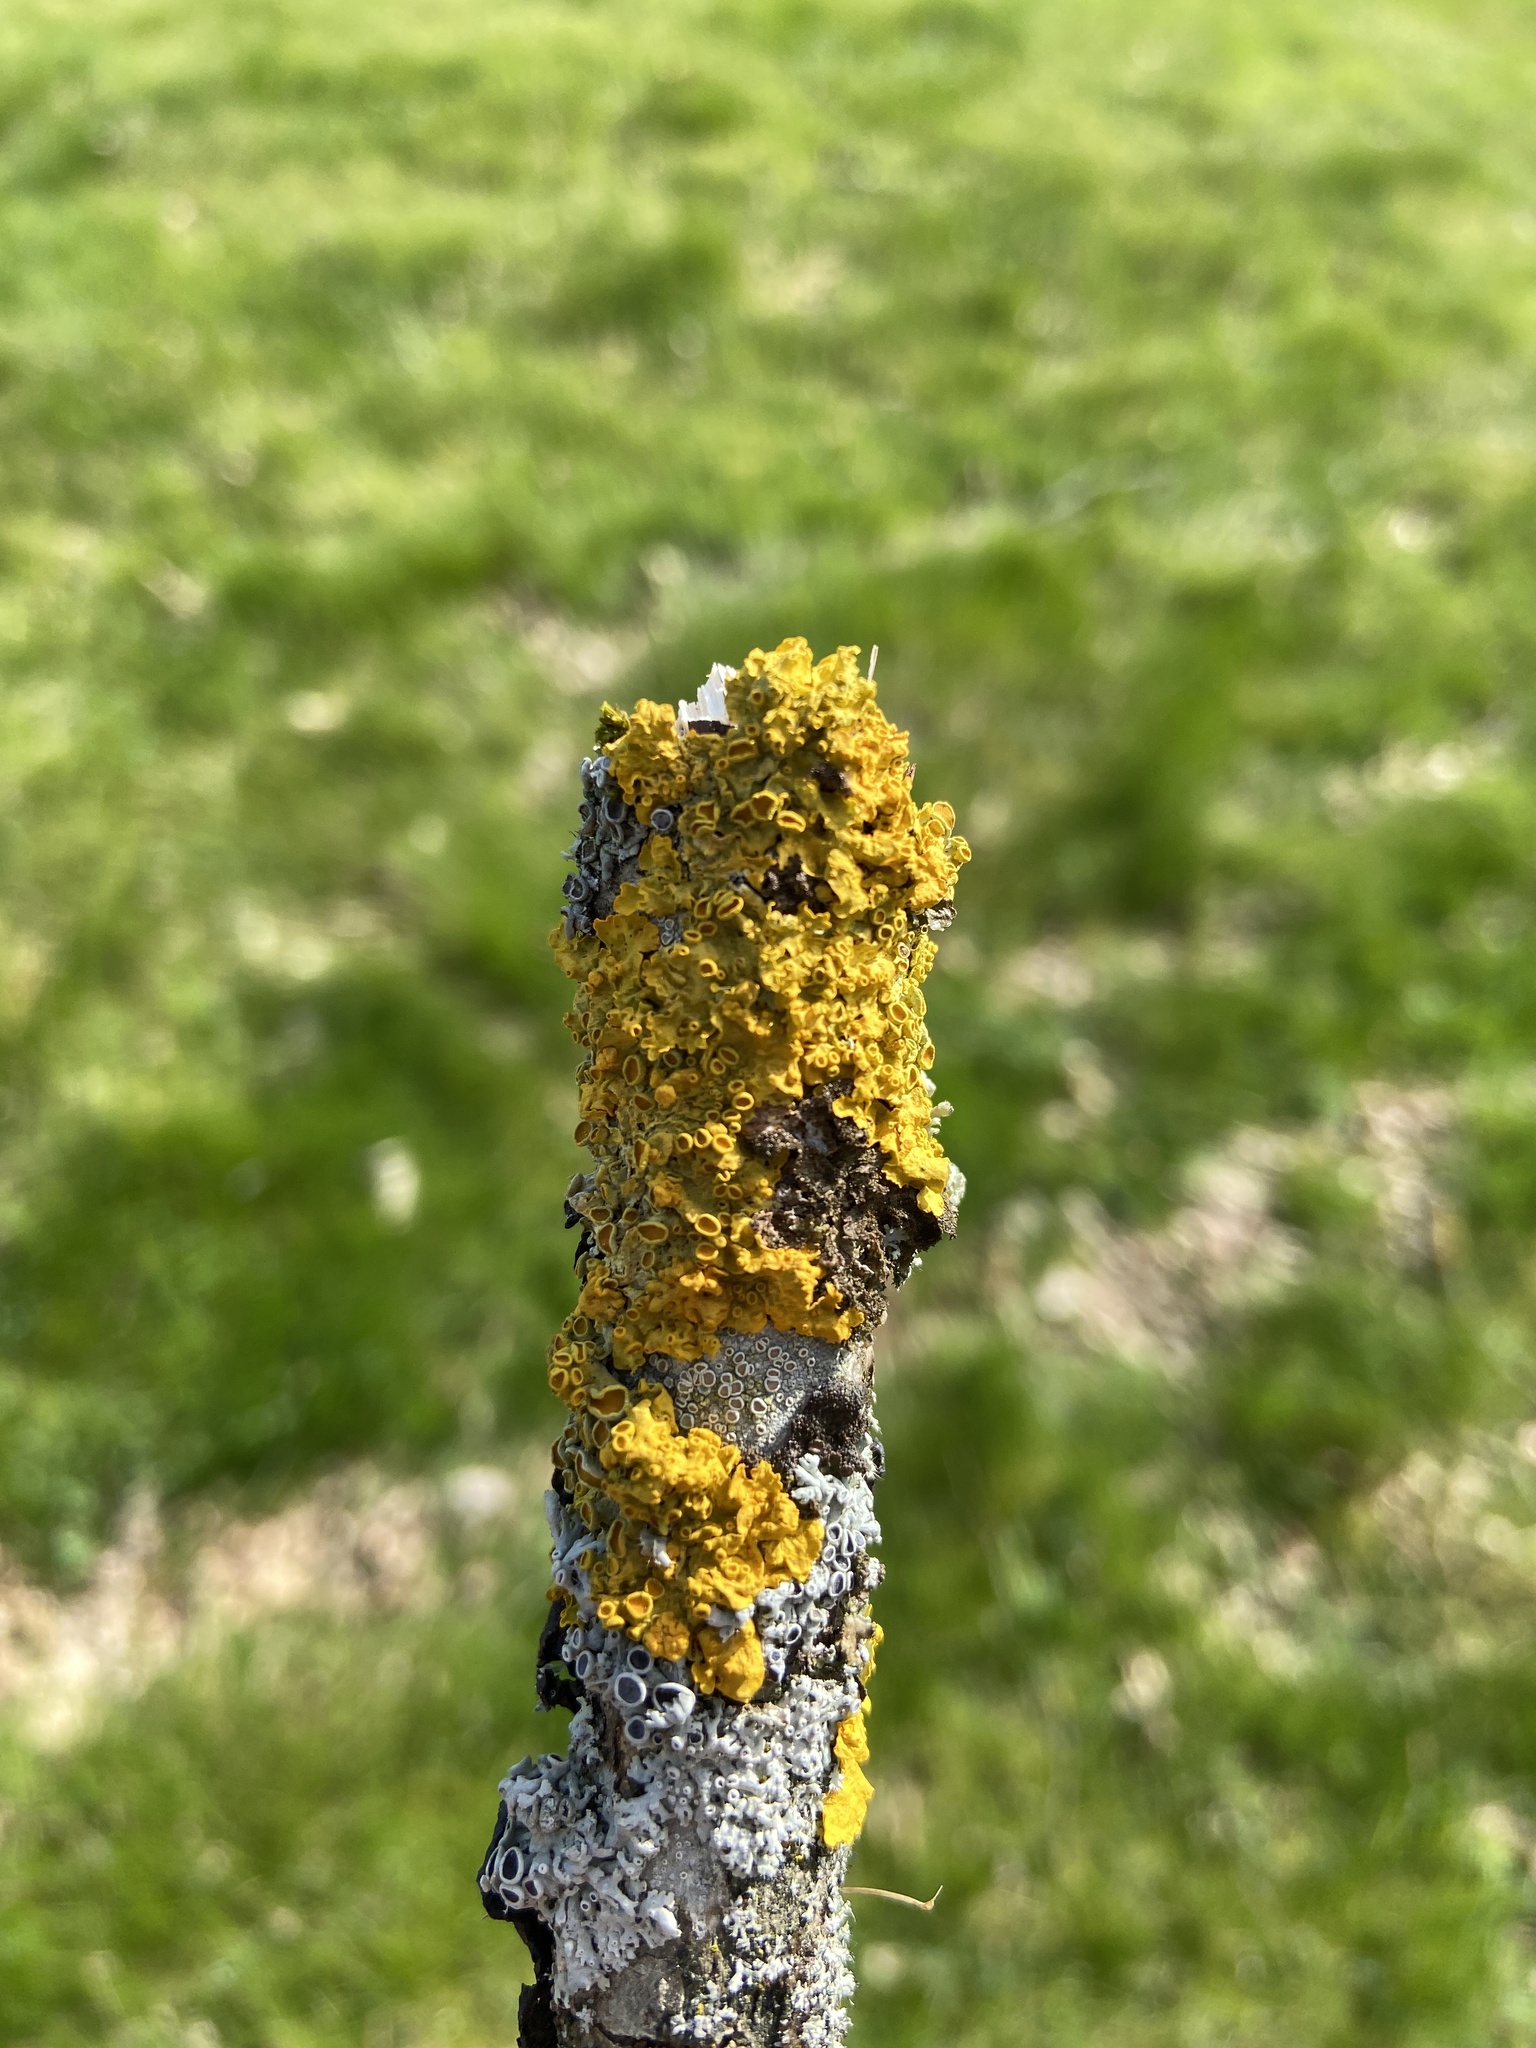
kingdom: Fungi
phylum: Ascomycota
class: Lecanoromycetes
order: Teloschistales
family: Teloschistaceae
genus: Xanthoria
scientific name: Xanthoria parietina
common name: Common orange lichen
